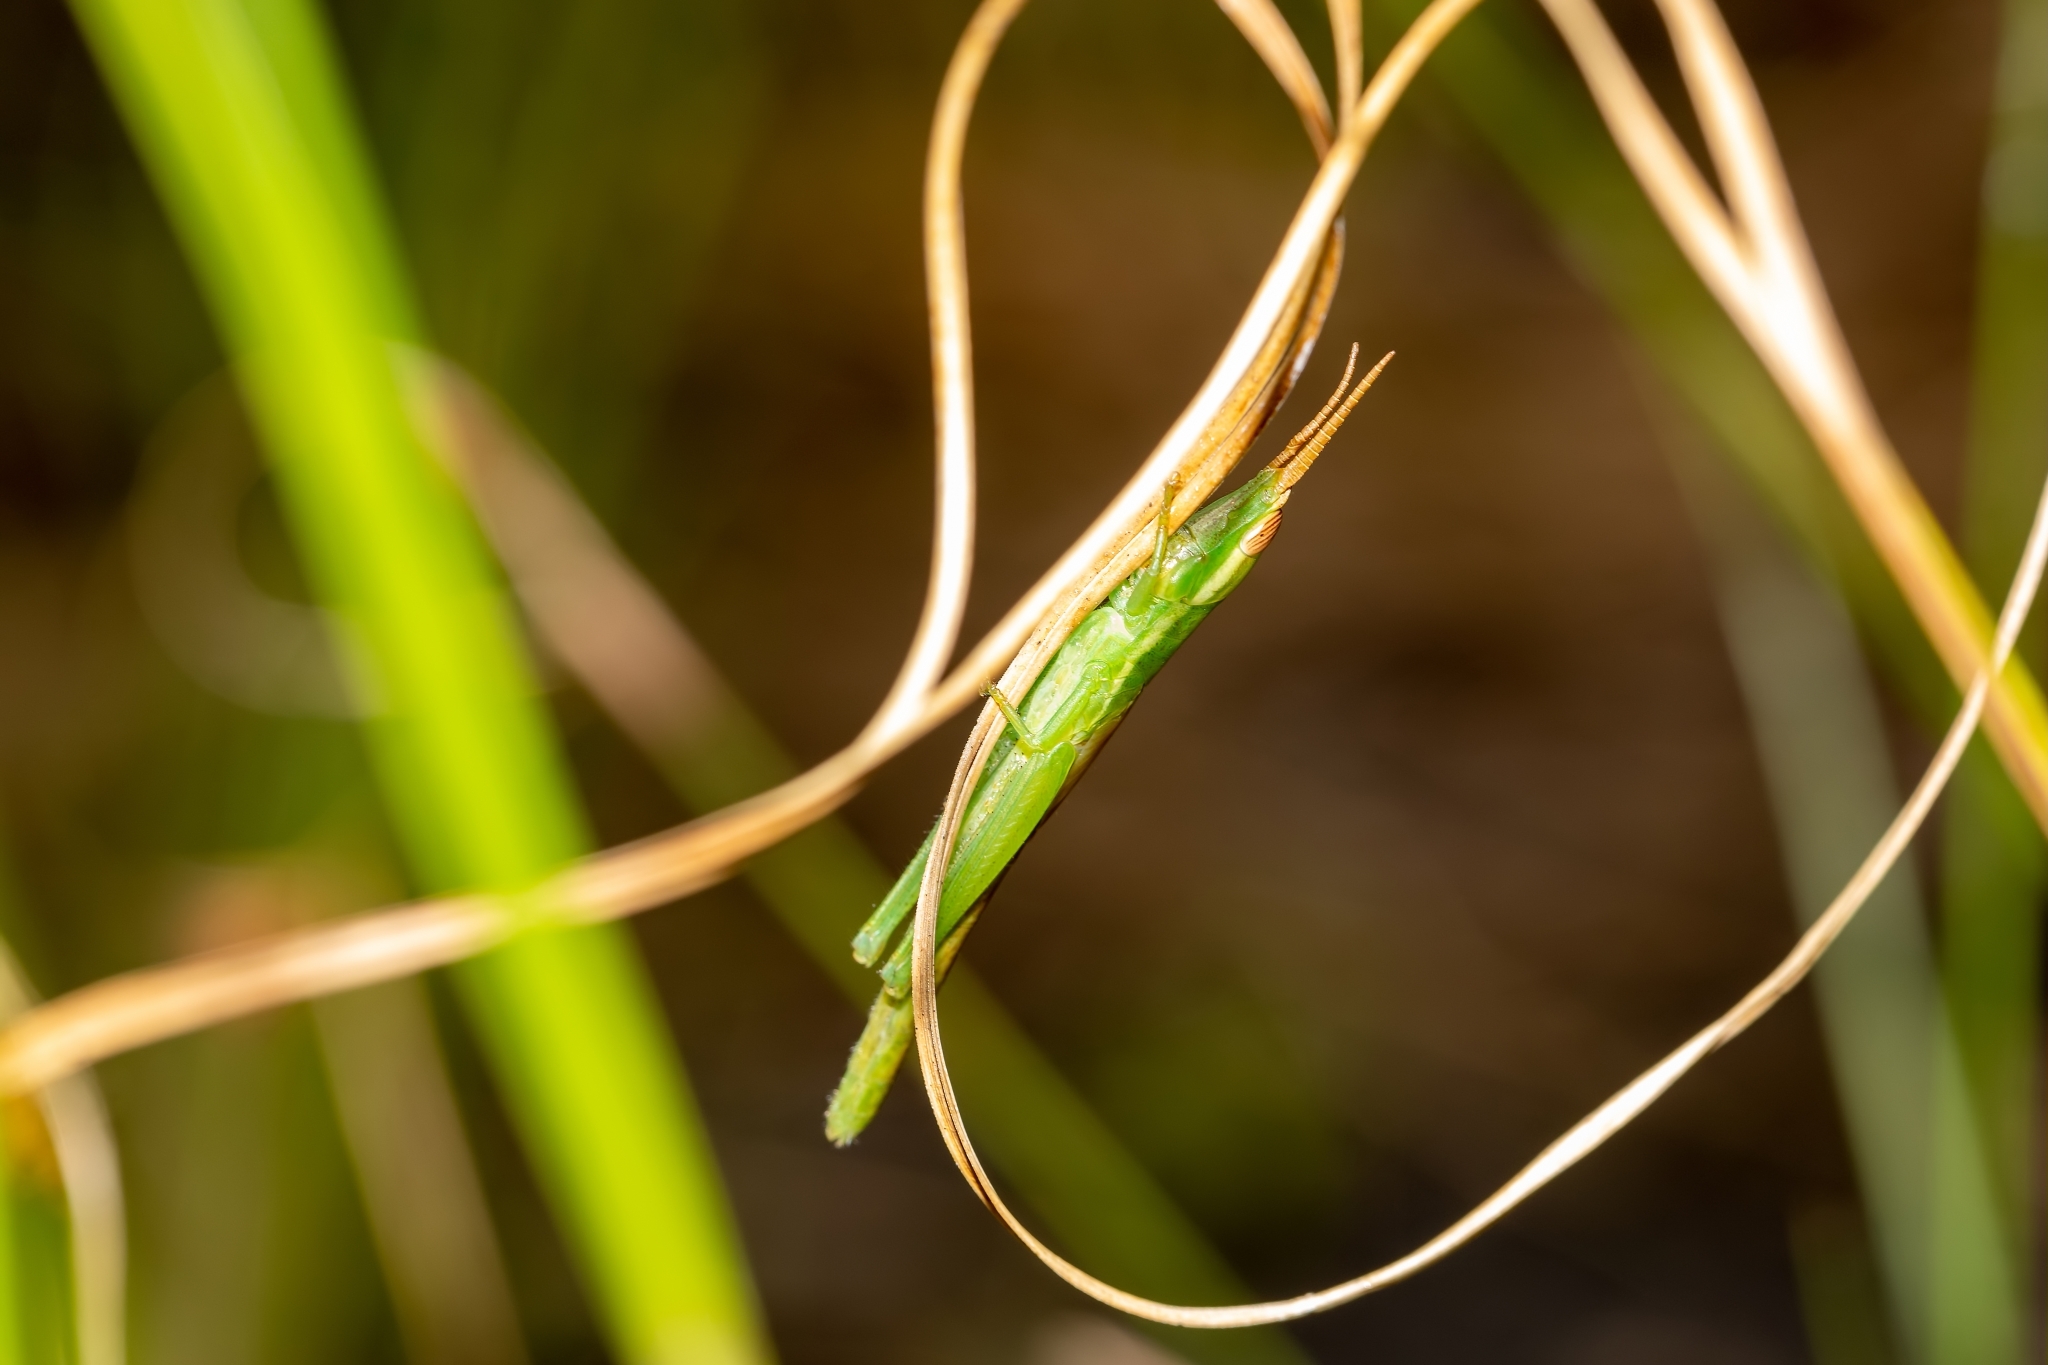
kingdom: Animalia
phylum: Arthropoda
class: Insecta
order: Orthoptera
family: Acrididae
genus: Leptysma
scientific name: Leptysma marginicollis
